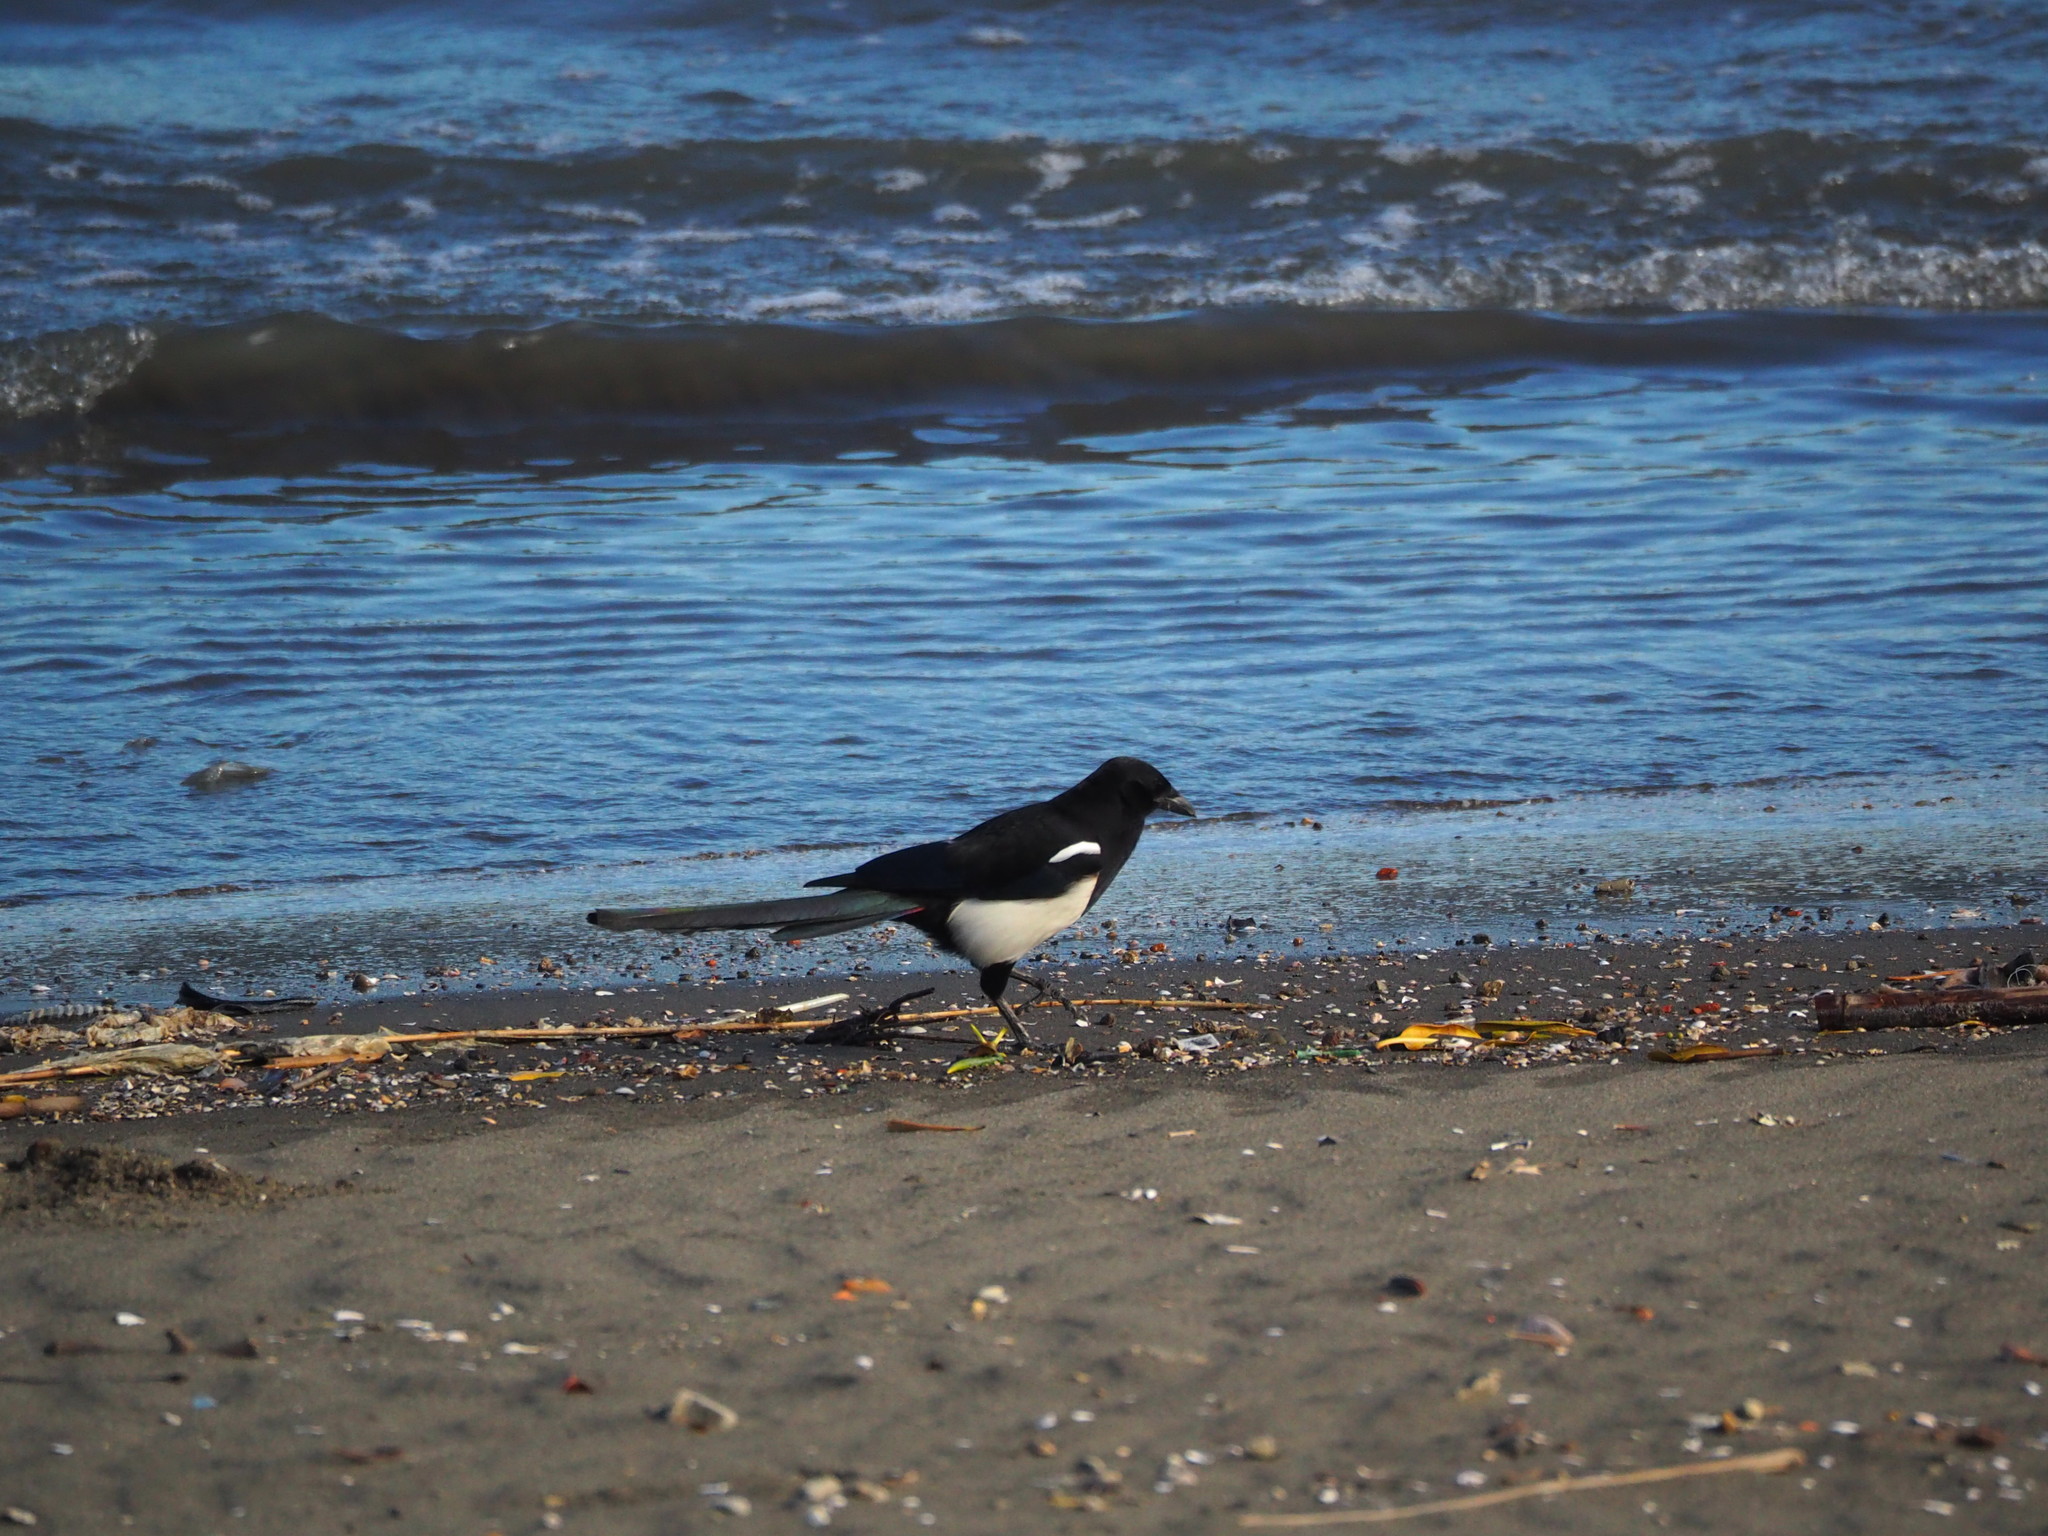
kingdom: Animalia
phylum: Chordata
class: Aves
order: Passeriformes
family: Corvidae
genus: Pica
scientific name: Pica serica
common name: Oriental magpie
